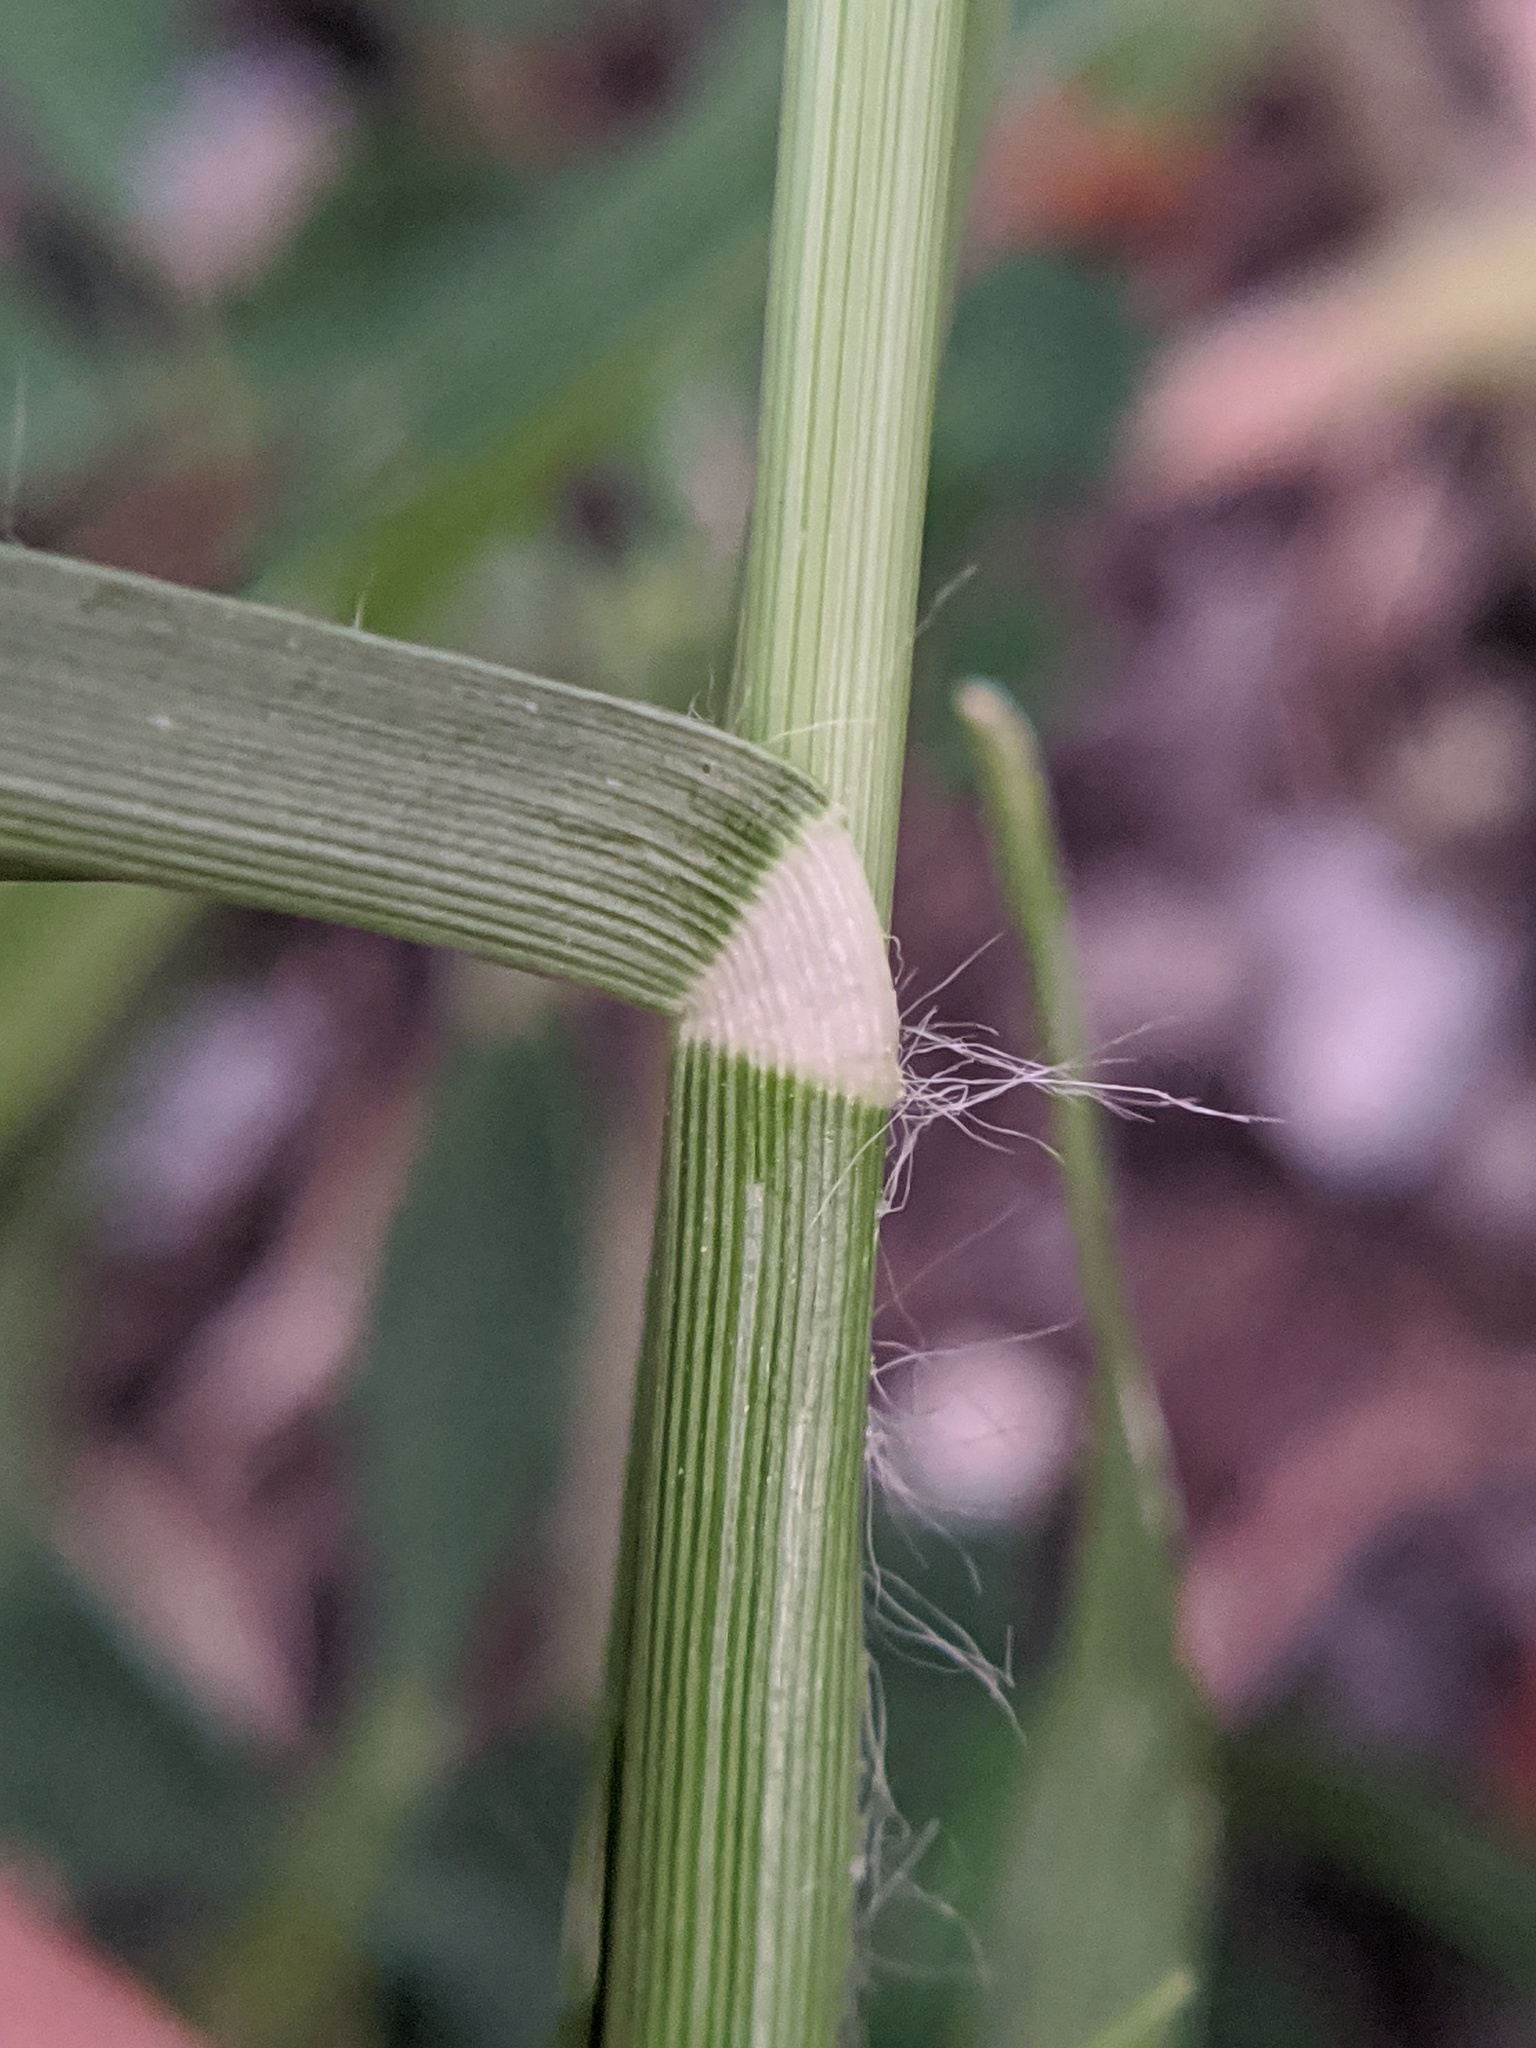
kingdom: Plantae
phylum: Tracheophyta
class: Liliopsida
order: Poales
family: Poaceae
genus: Eleusine
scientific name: Eleusine indica
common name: Yard-grass
